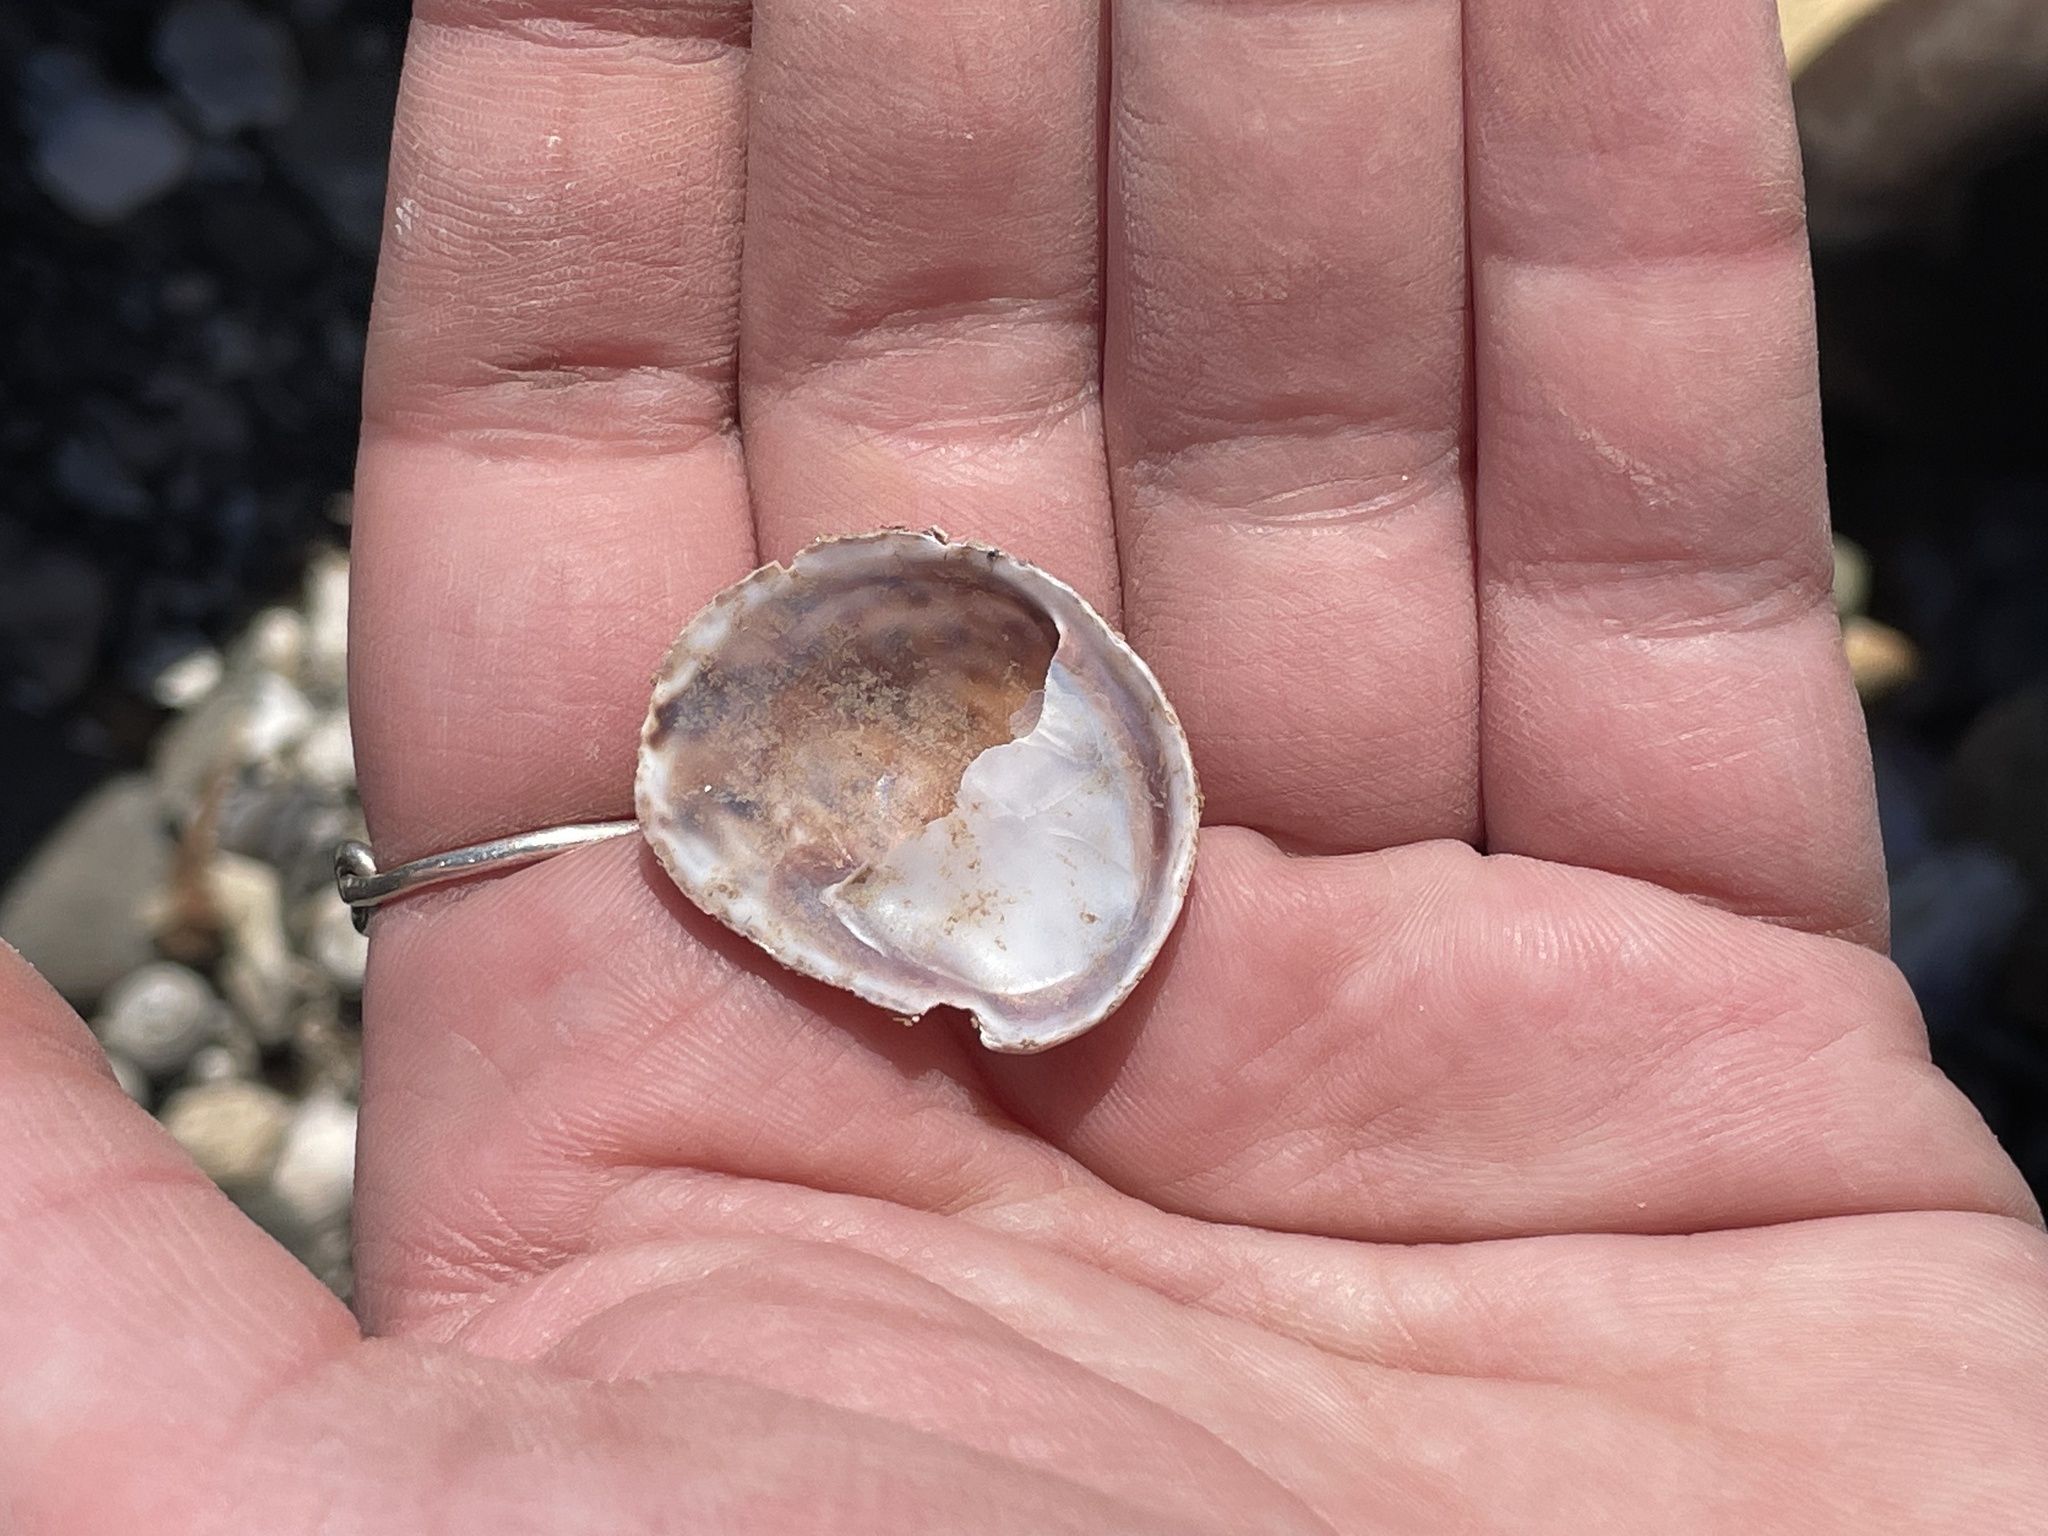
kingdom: Animalia
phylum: Mollusca
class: Gastropoda
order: Littorinimorpha
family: Calyptraeidae
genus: Crepidula
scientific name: Crepidula fornicata
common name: Slipper limpet
